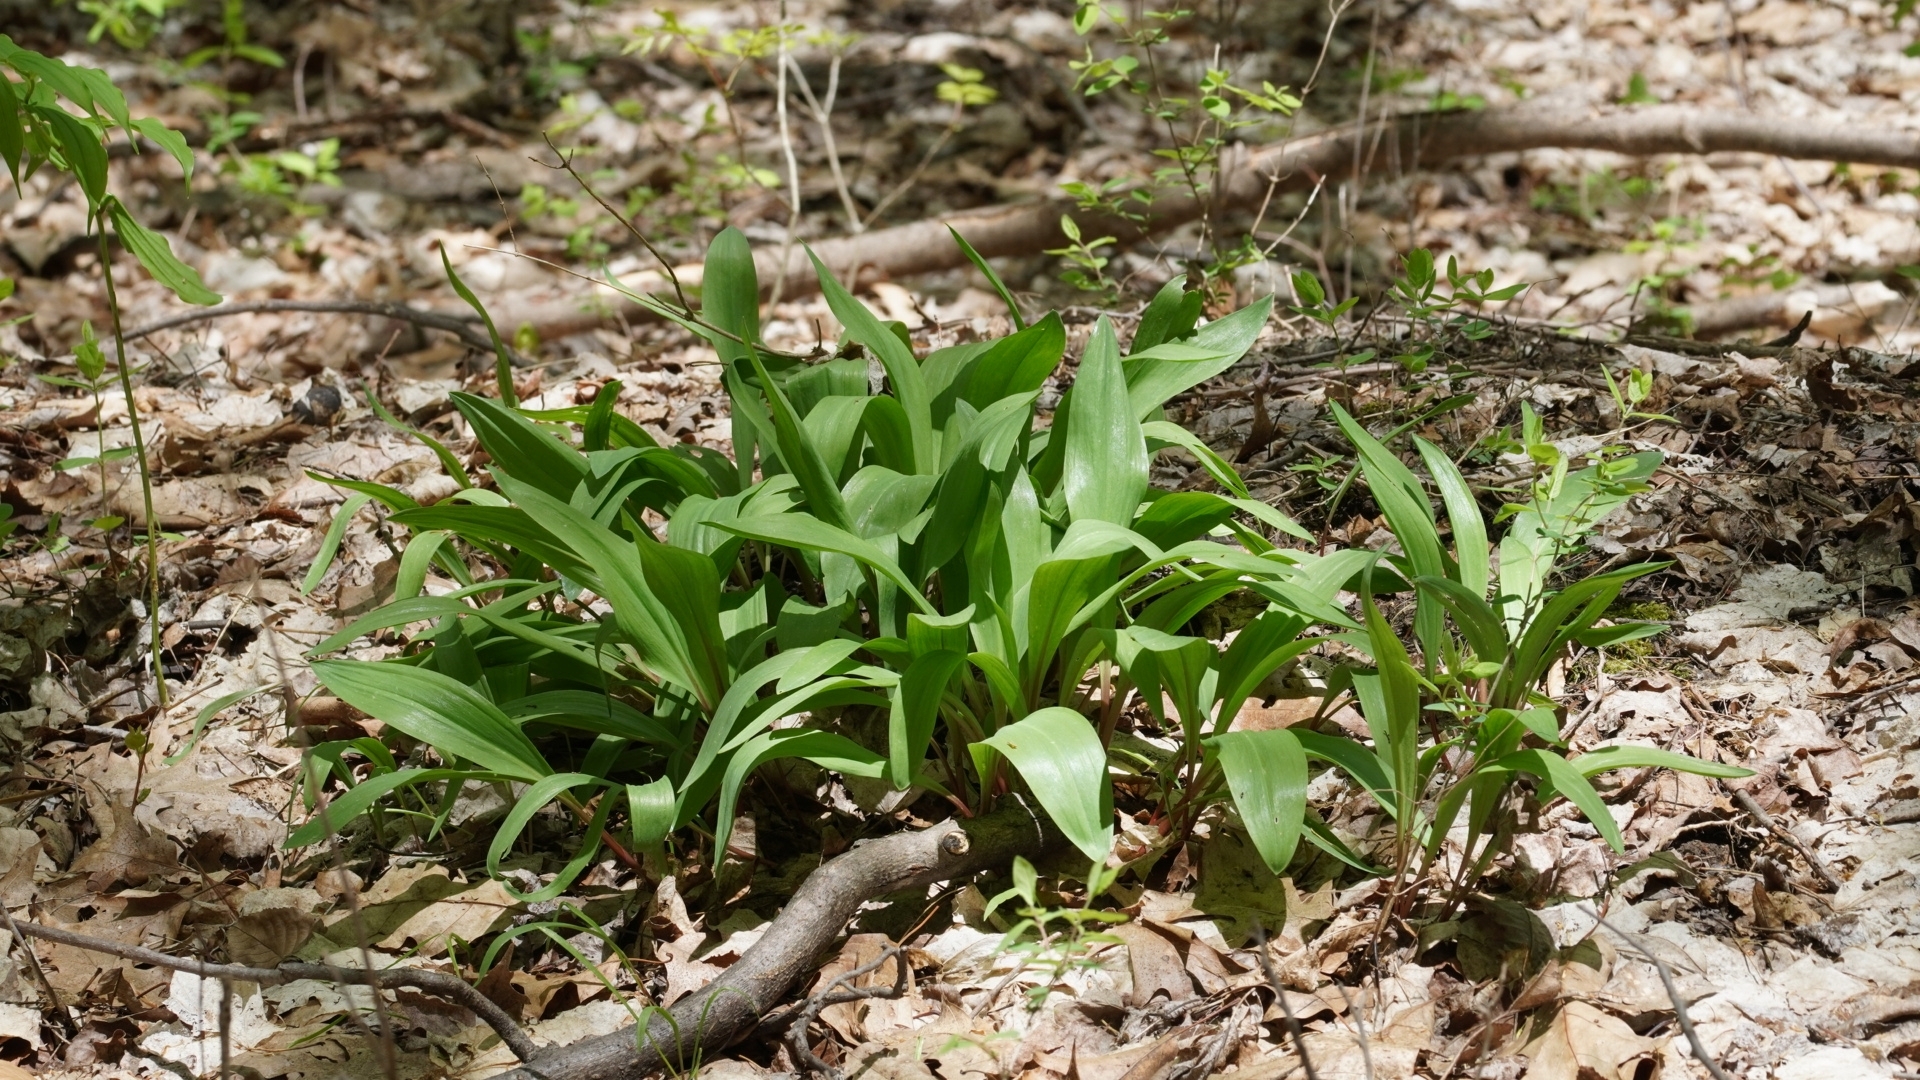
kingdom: Plantae
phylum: Tracheophyta
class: Liliopsida
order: Asparagales
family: Amaryllidaceae
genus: Allium
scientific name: Allium tricoccum
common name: Ramp
